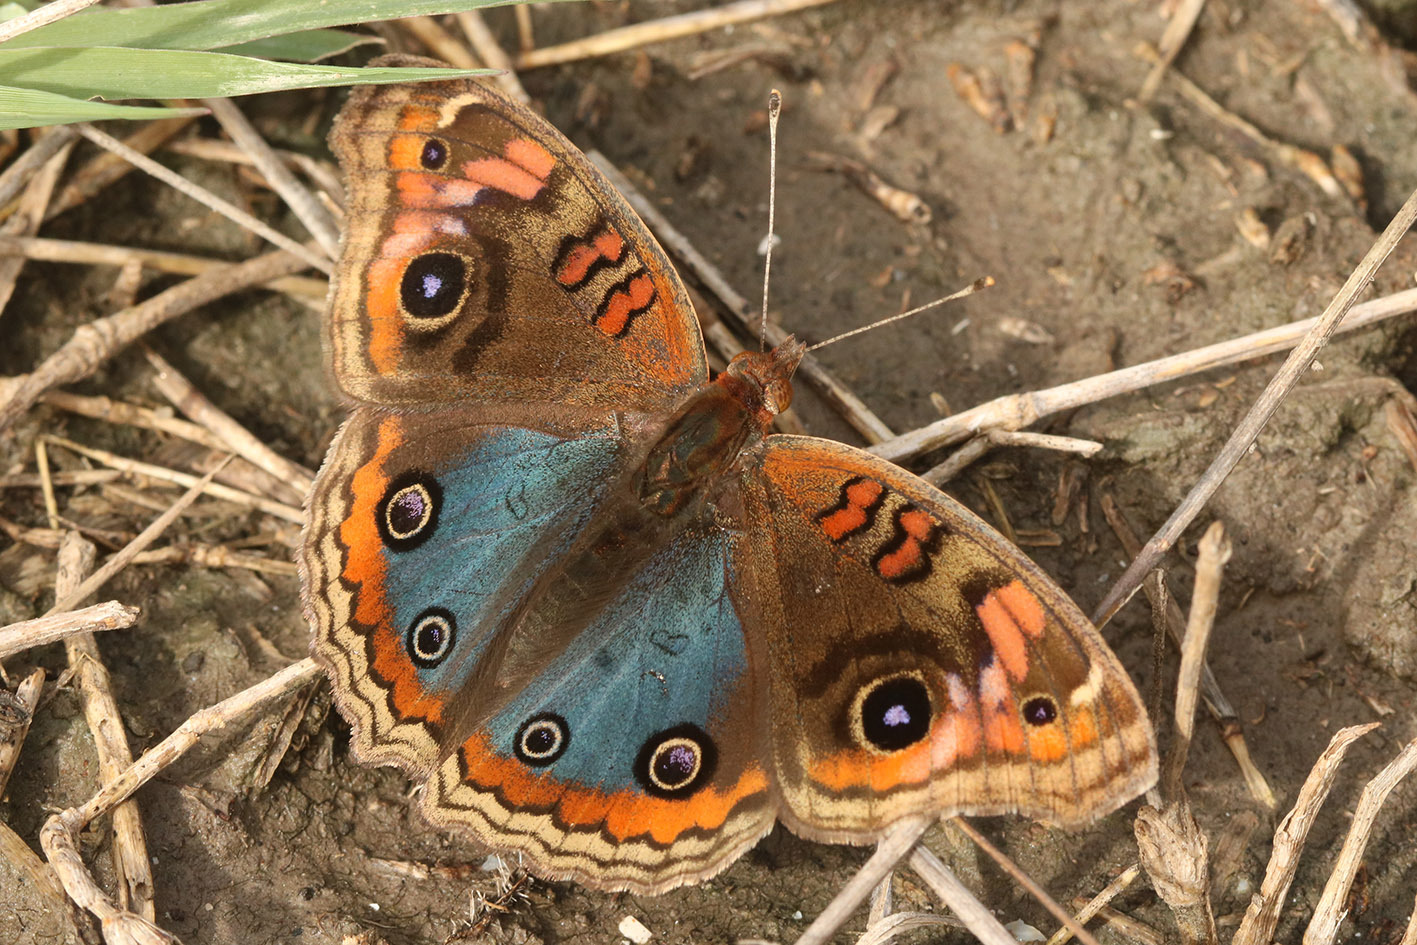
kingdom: Animalia
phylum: Arthropoda
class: Insecta
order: Lepidoptera
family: Nymphalidae
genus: Junonia
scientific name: Junonia lavinia
